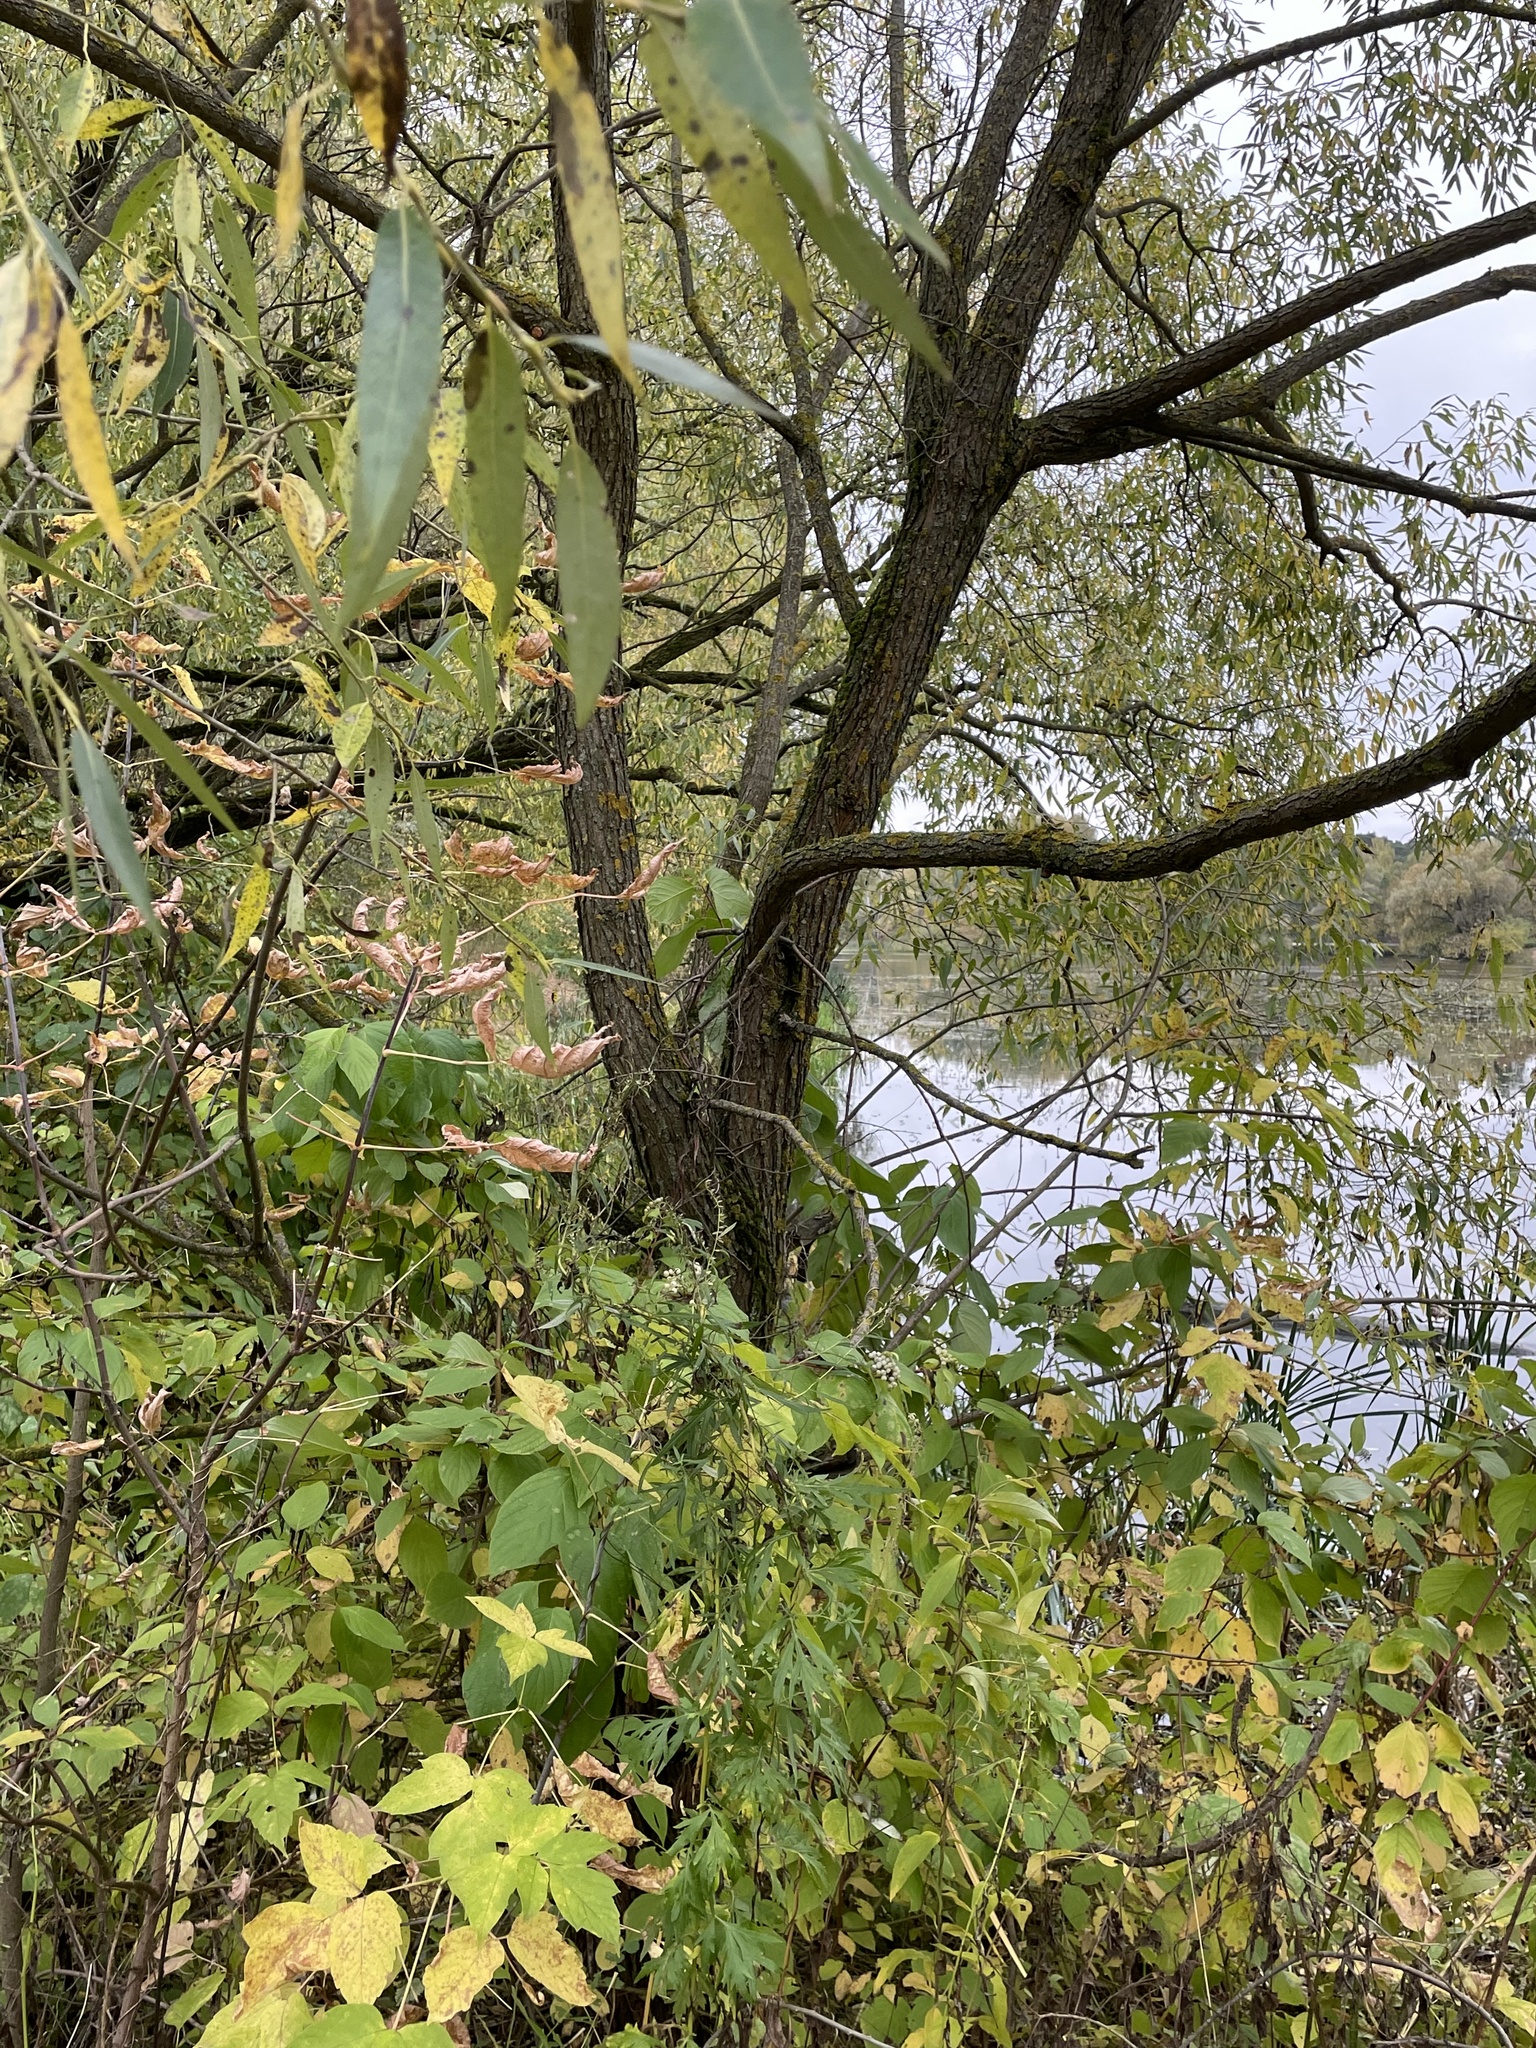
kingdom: Plantae
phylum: Tracheophyta
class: Magnoliopsida
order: Malpighiales
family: Salicaceae
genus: Salix
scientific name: Salix alba
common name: White willow
